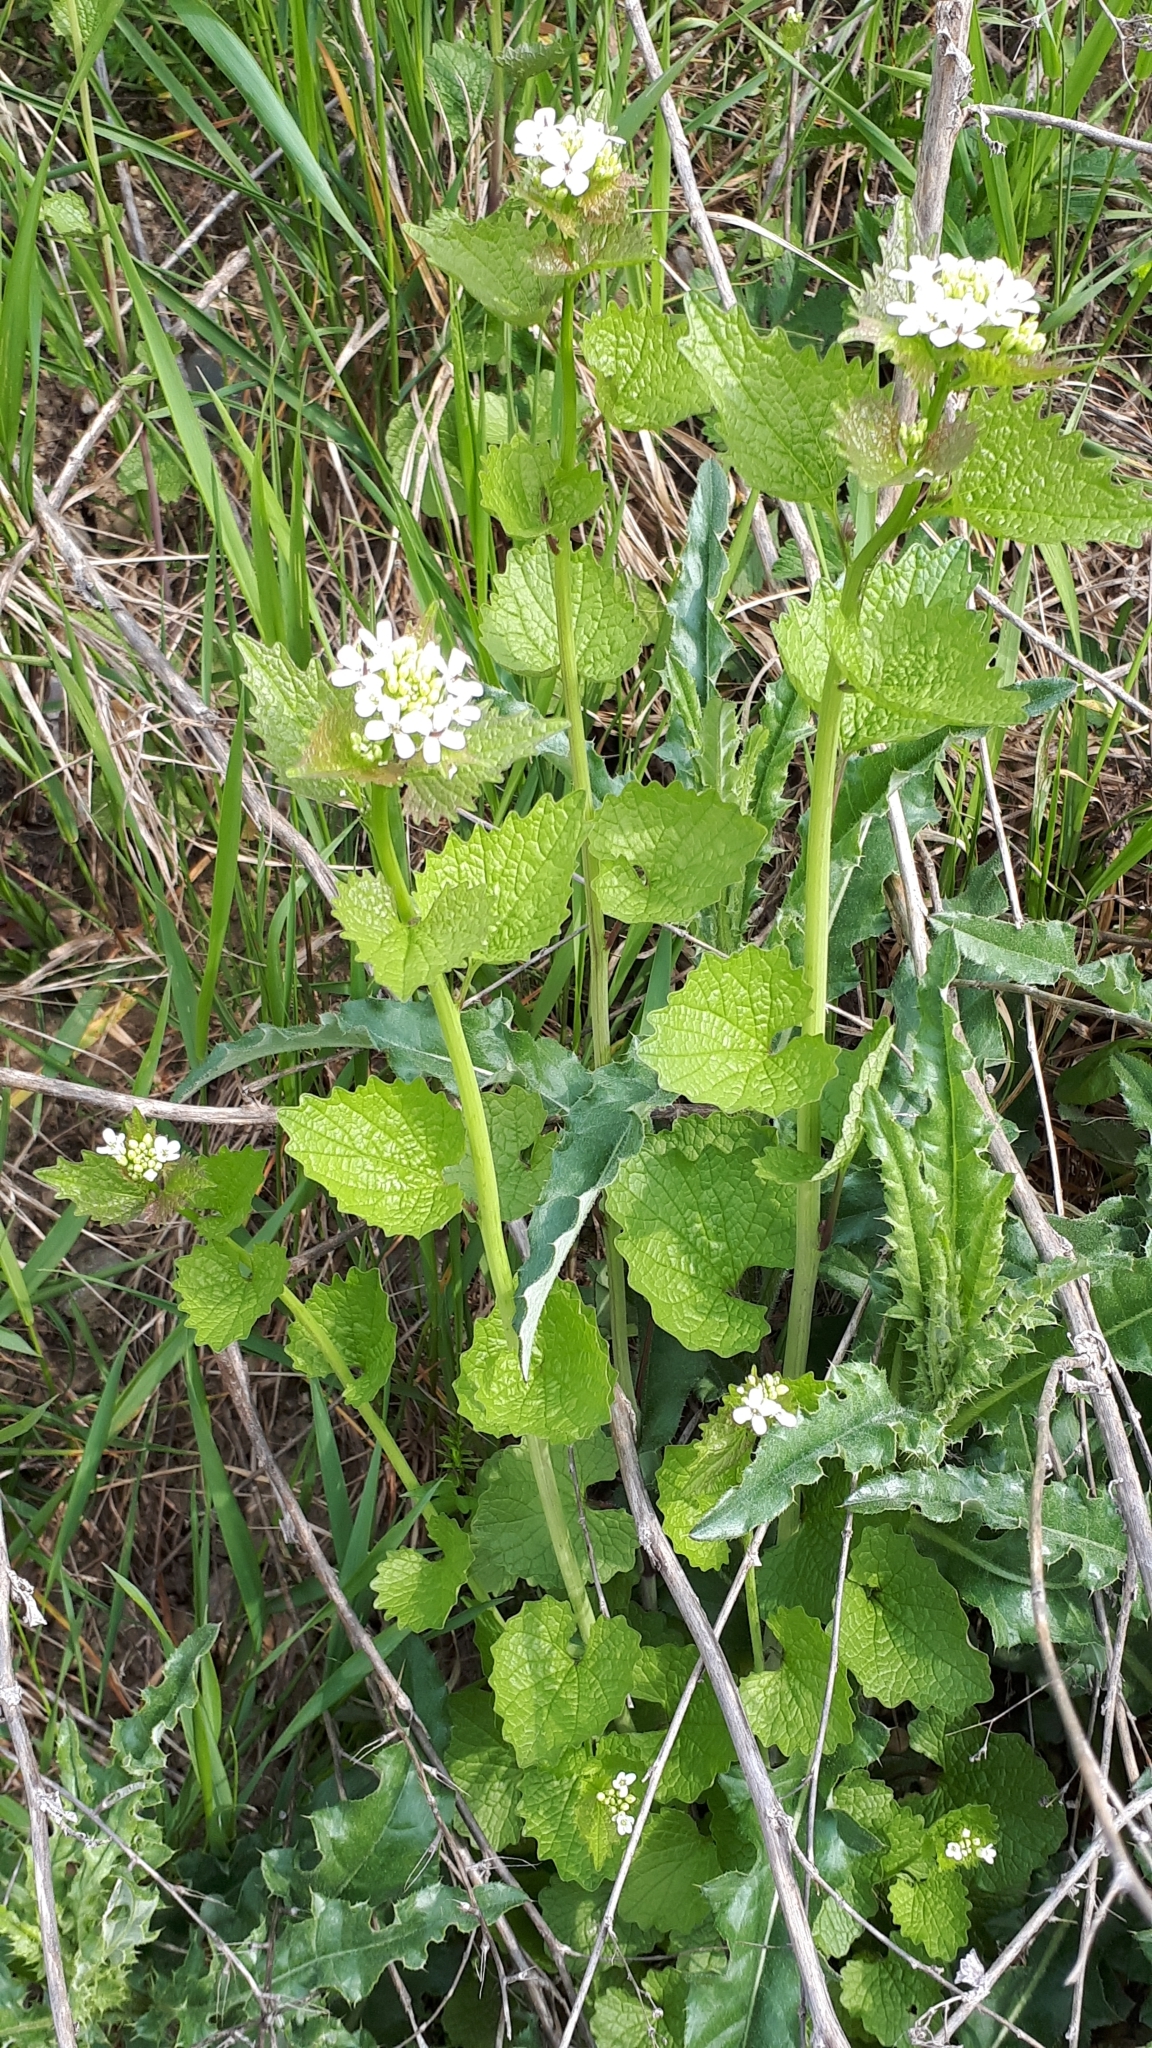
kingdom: Plantae
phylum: Tracheophyta
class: Magnoliopsida
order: Brassicales
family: Brassicaceae
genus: Alliaria
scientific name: Alliaria petiolata
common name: Garlic mustard
